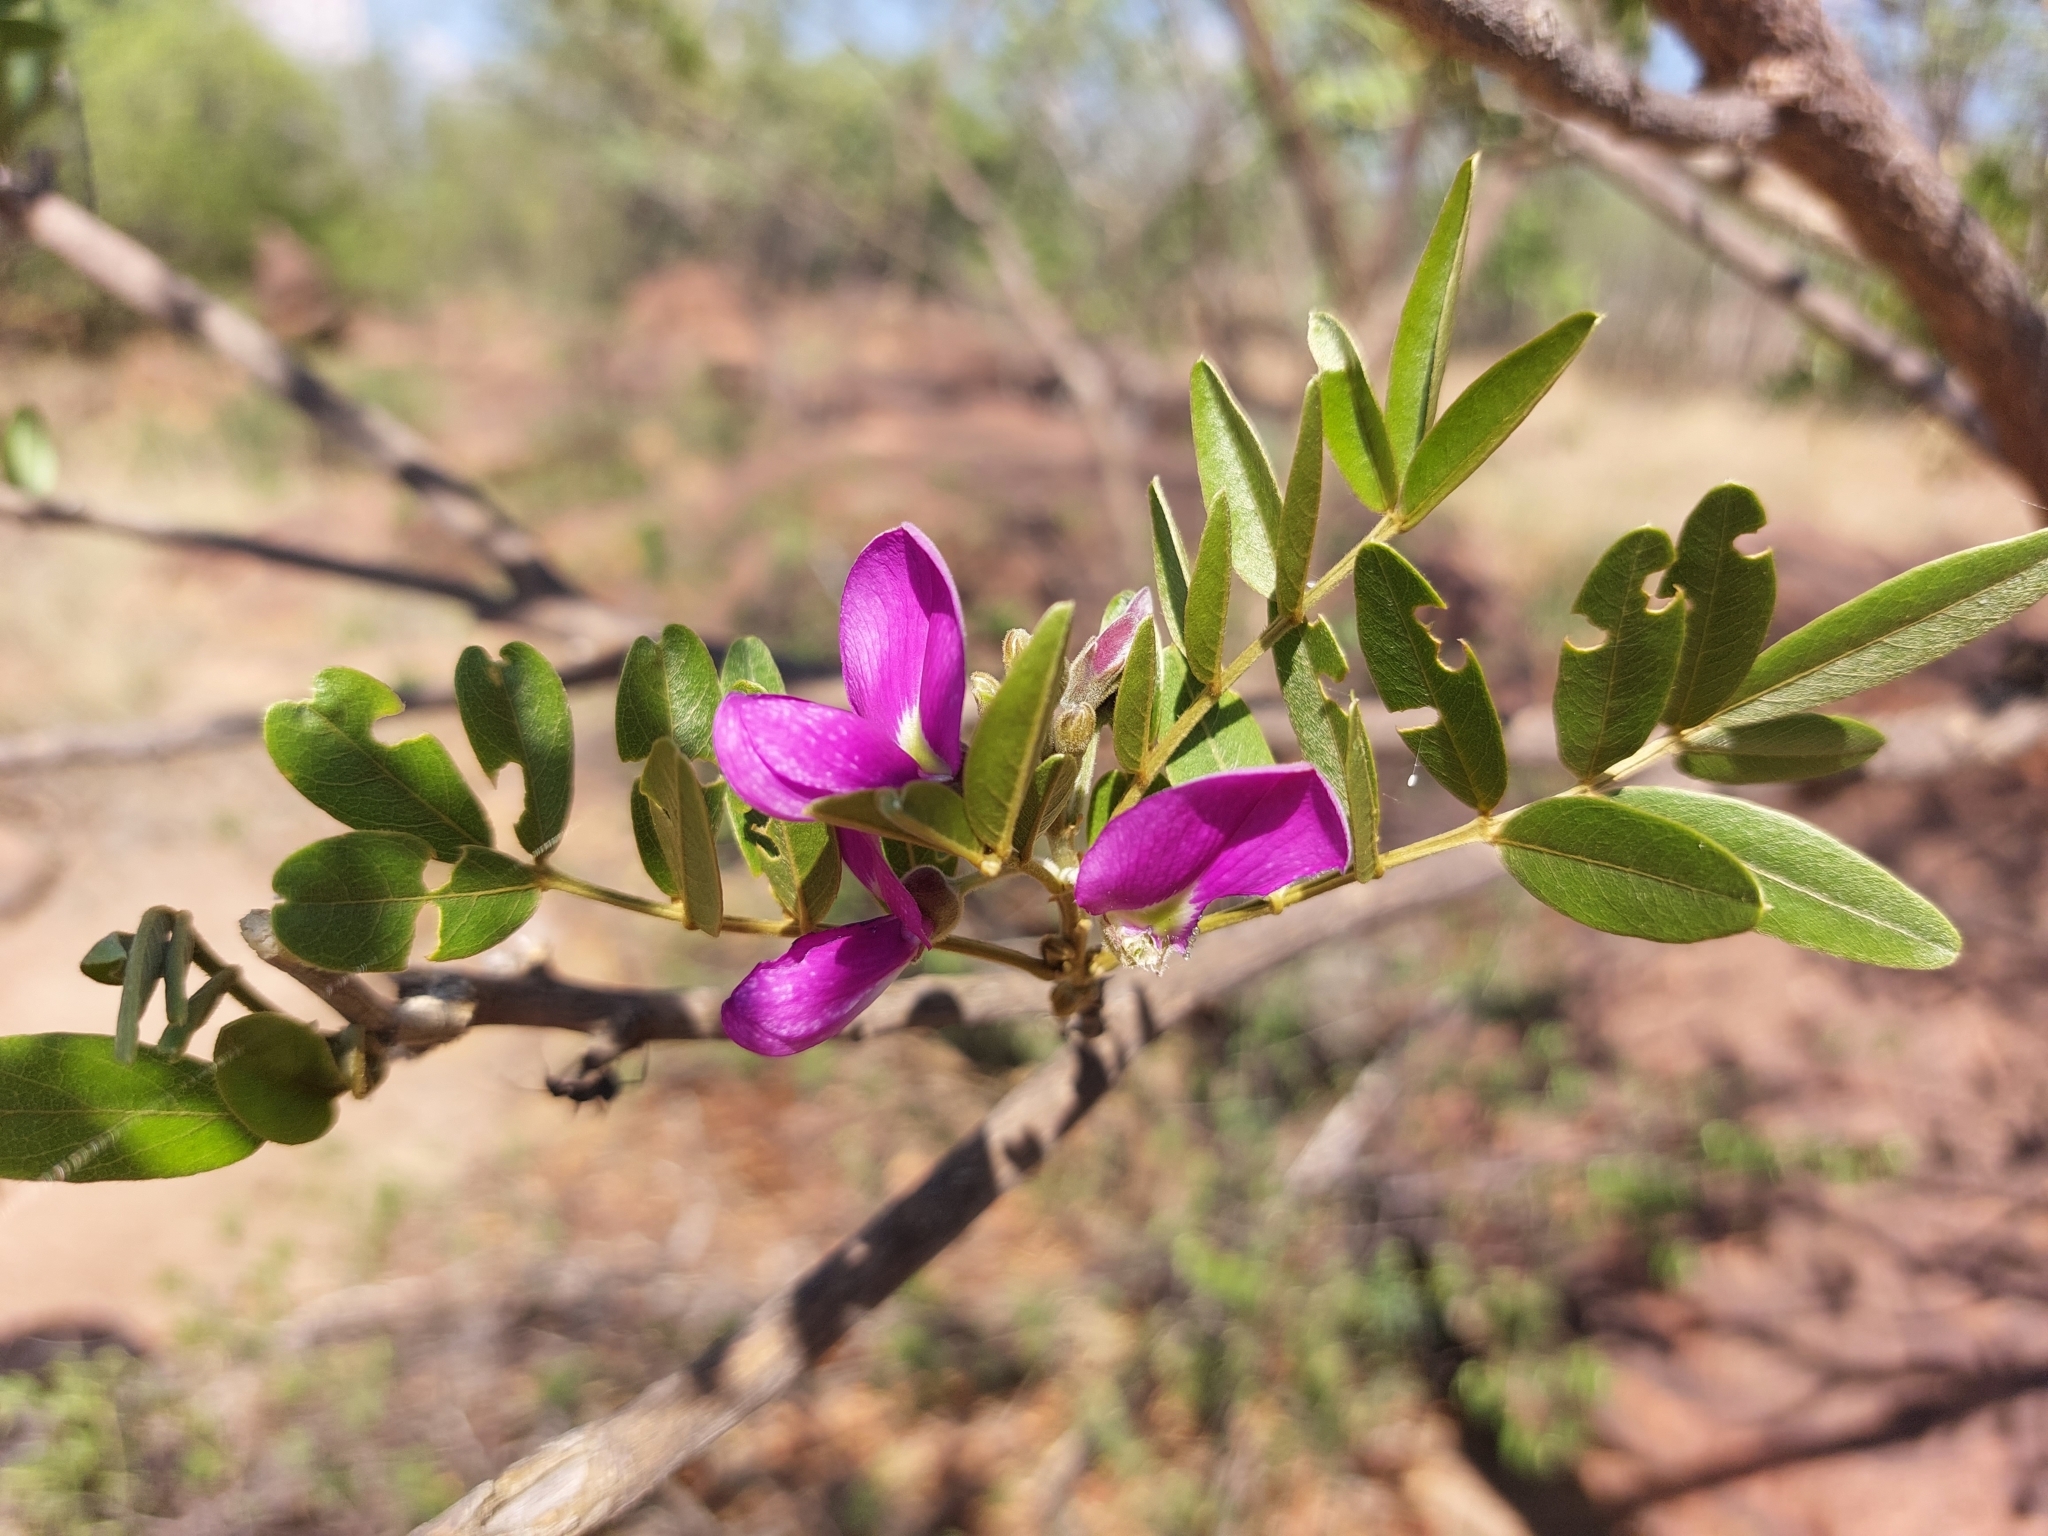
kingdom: Plantae
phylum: Tracheophyta
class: Magnoliopsida
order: Fabales
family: Fabaceae
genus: Mundulea
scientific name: Mundulea sericea
